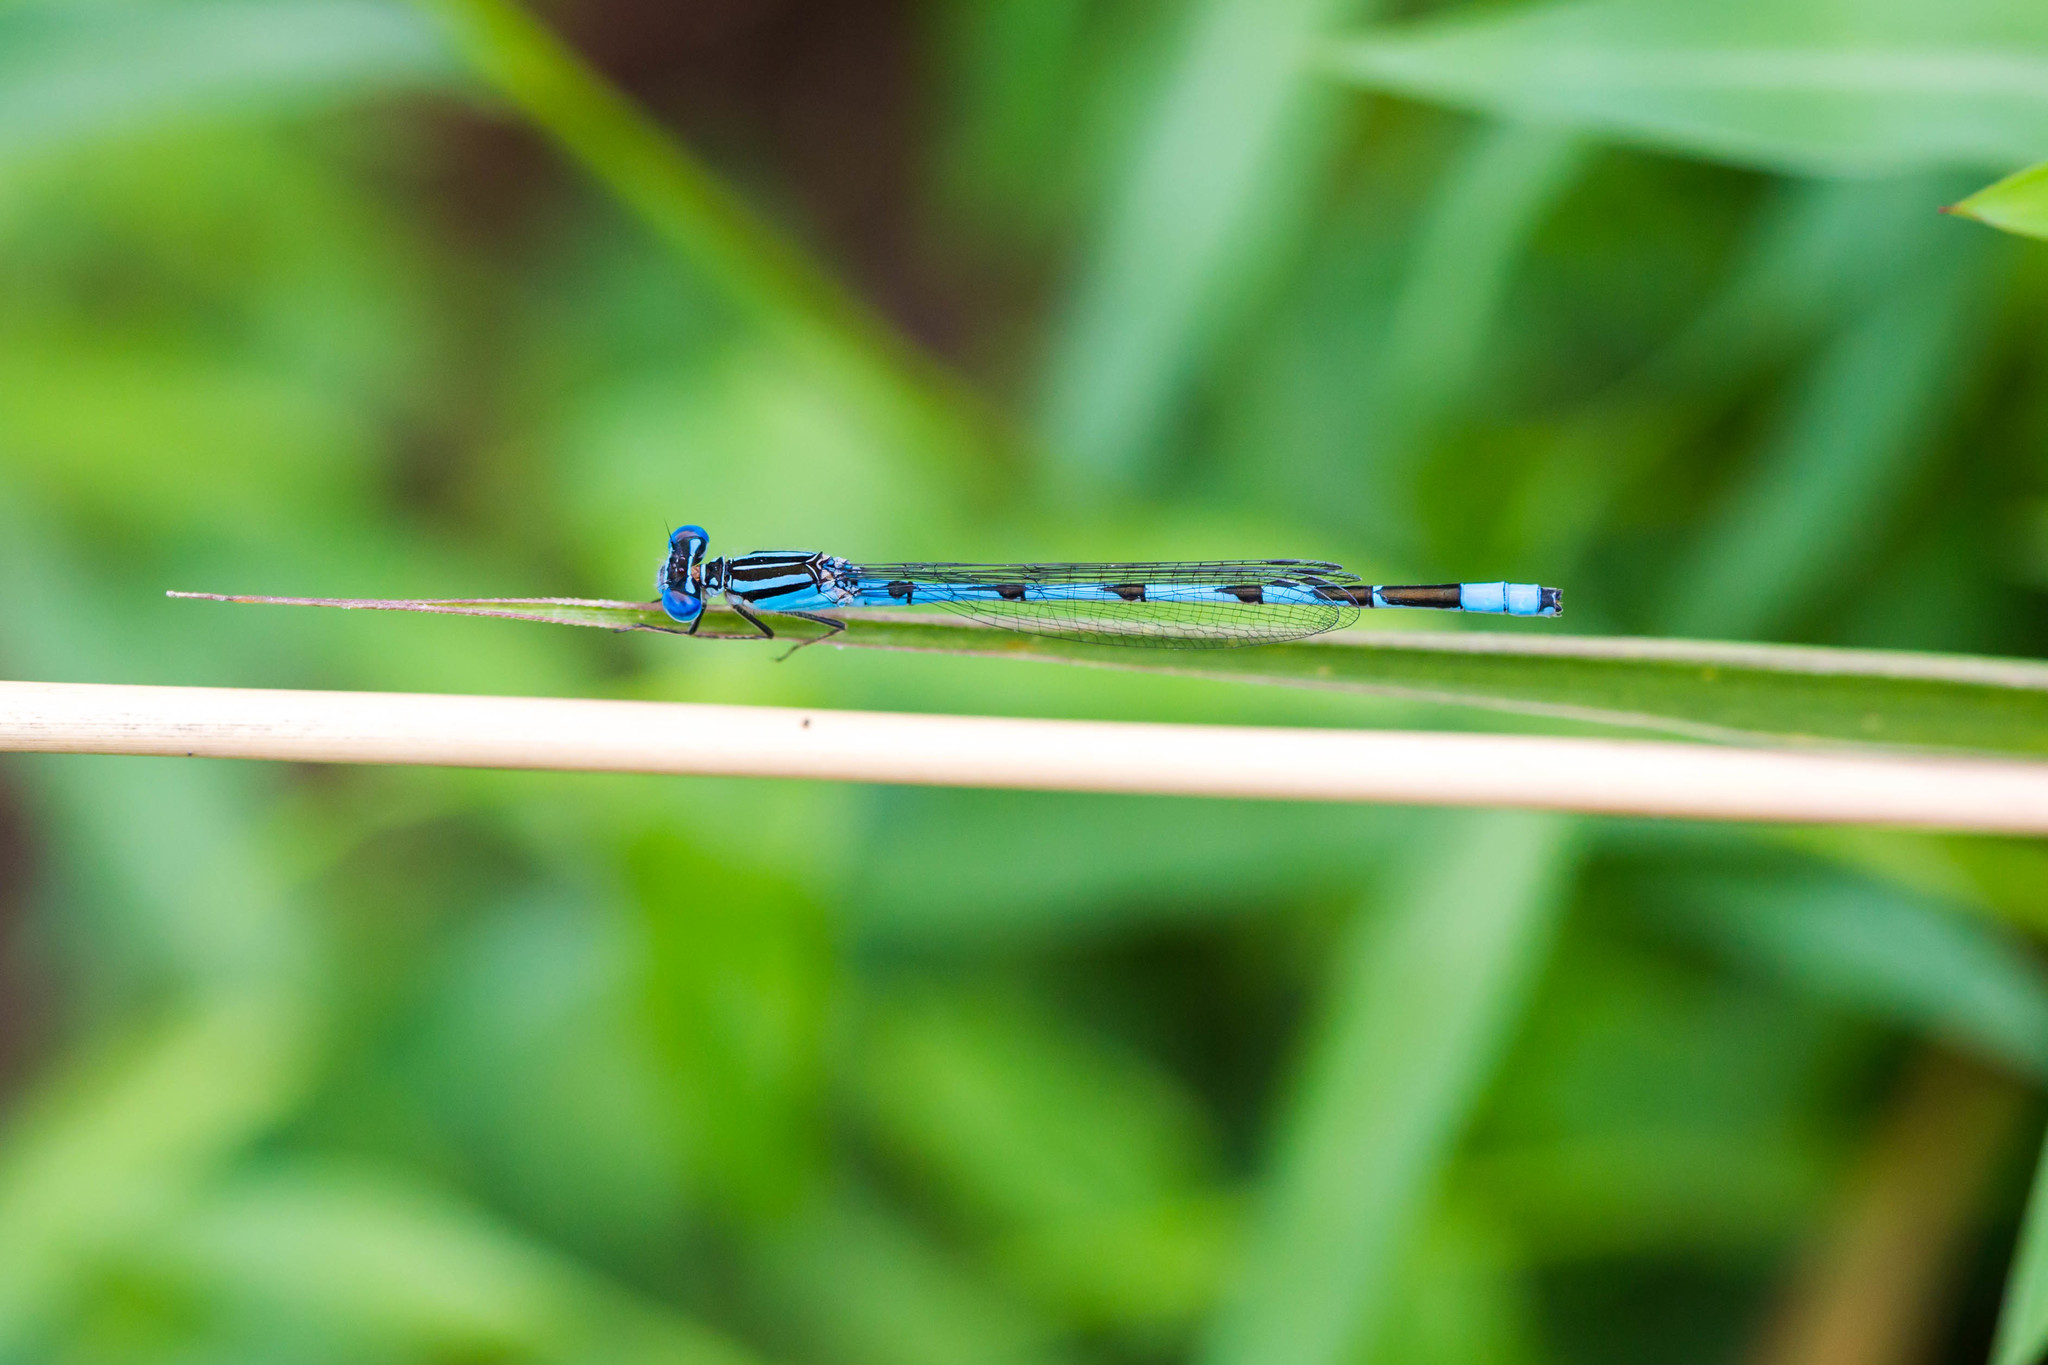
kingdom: Animalia
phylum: Arthropoda
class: Insecta
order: Odonata
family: Coenagrionidae
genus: Enallagma
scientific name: Enallagma durum
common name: Big bluet
